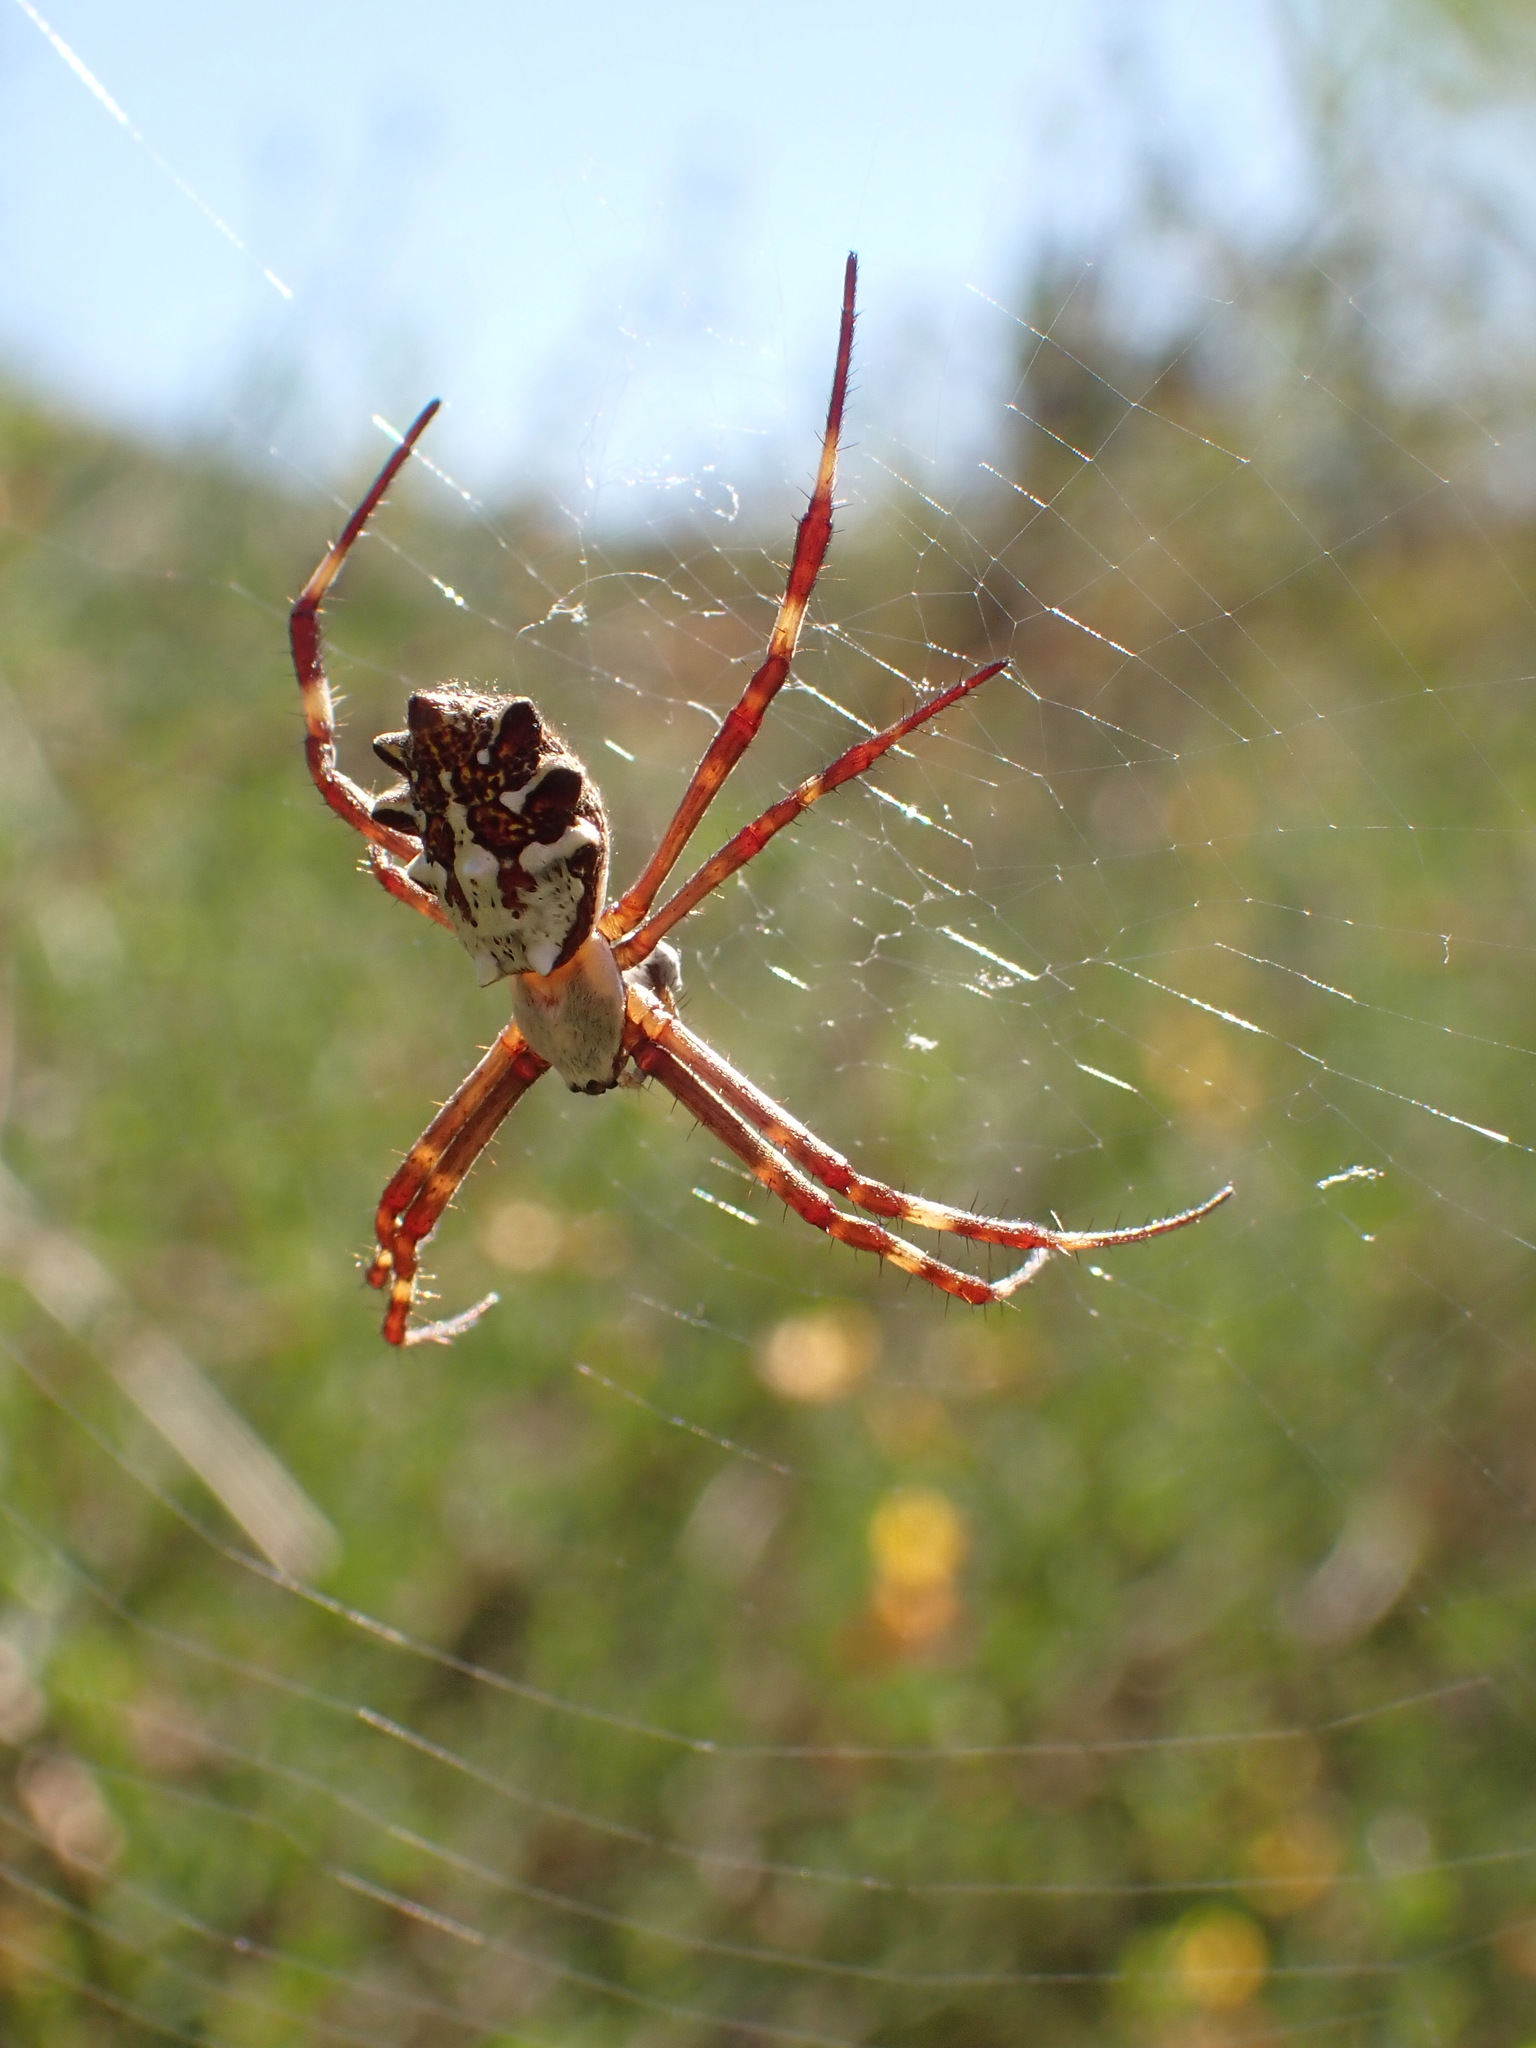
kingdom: Animalia
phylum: Arthropoda
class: Arachnida
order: Araneae
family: Araneidae
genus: Argiope
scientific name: Argiope argentata
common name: Orb weavers
